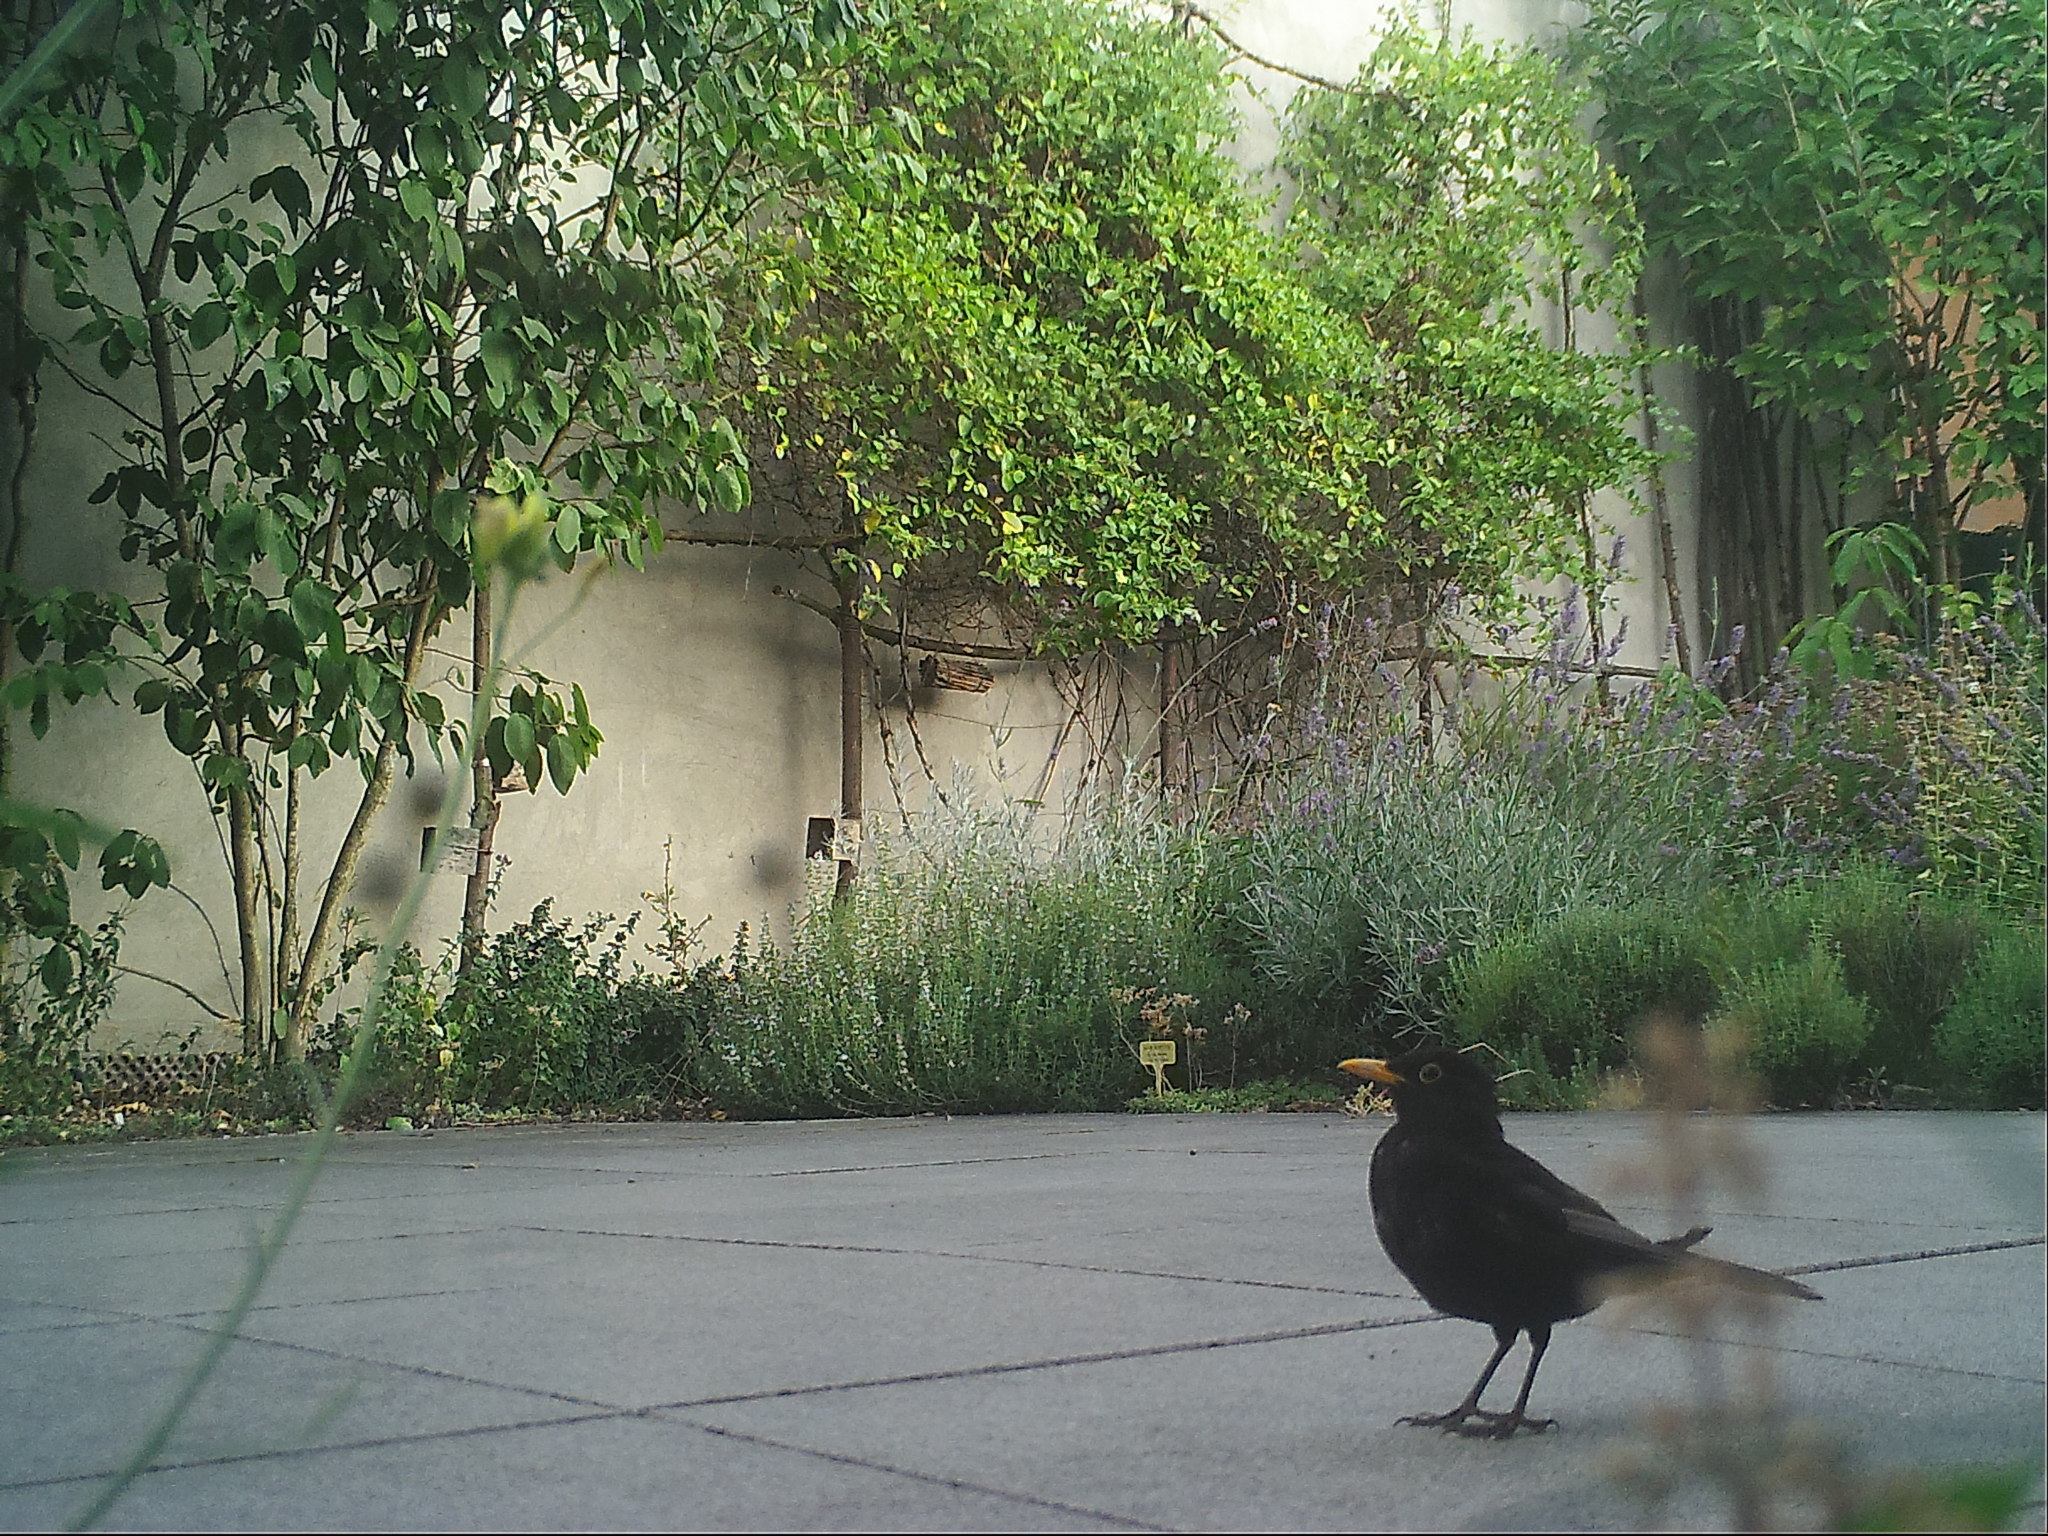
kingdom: Animalia
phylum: Chordata
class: Aves
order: Passeriformes
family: Turdidae
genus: Turdus
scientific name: Turdus merula
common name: Common blackbird
